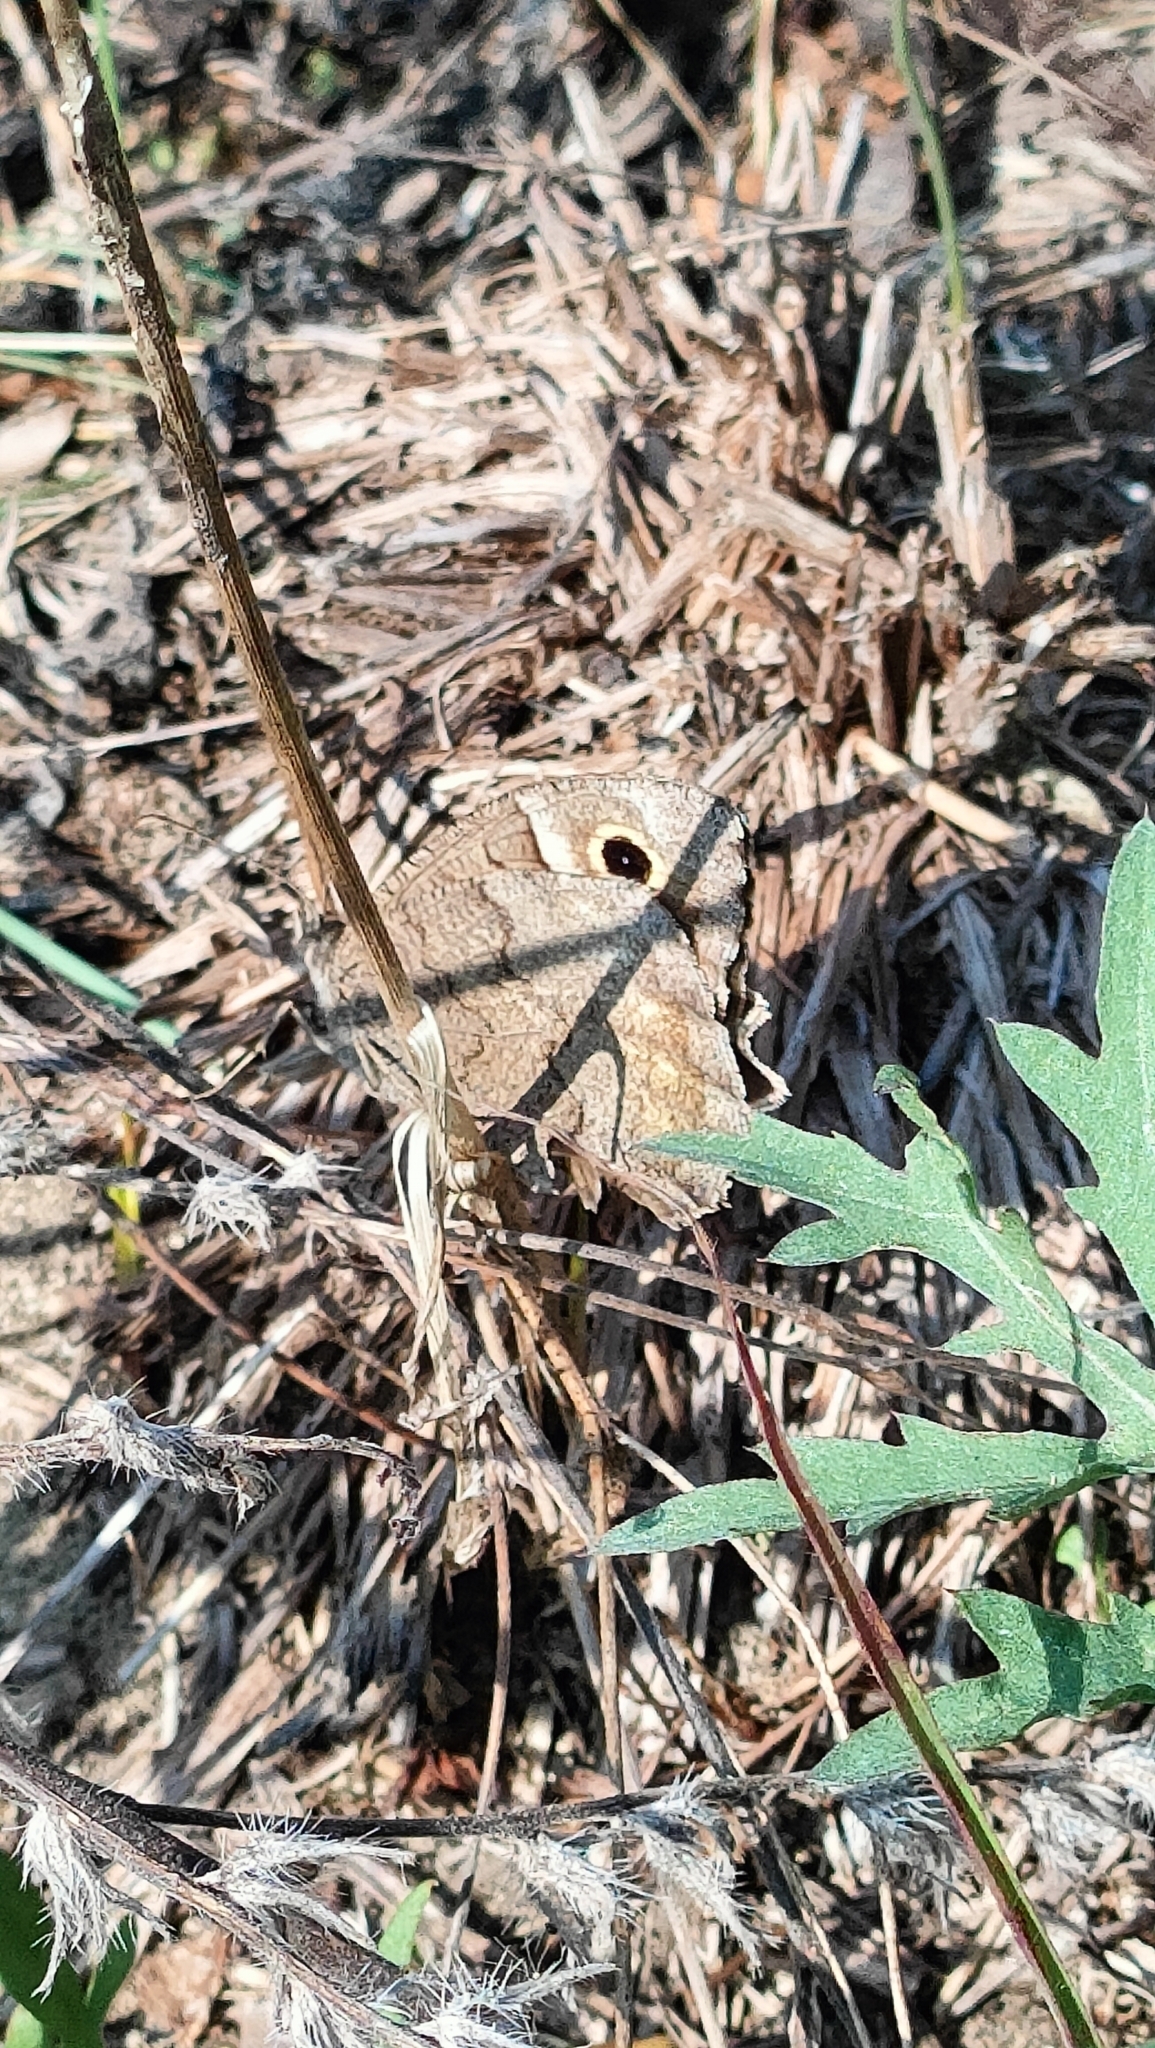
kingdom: Animalia
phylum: Arthropoda
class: Insecta
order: Lepidoptera
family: Nymphalidae
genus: Hipparchia
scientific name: Hipparchia statilinus
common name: Tree grayling
